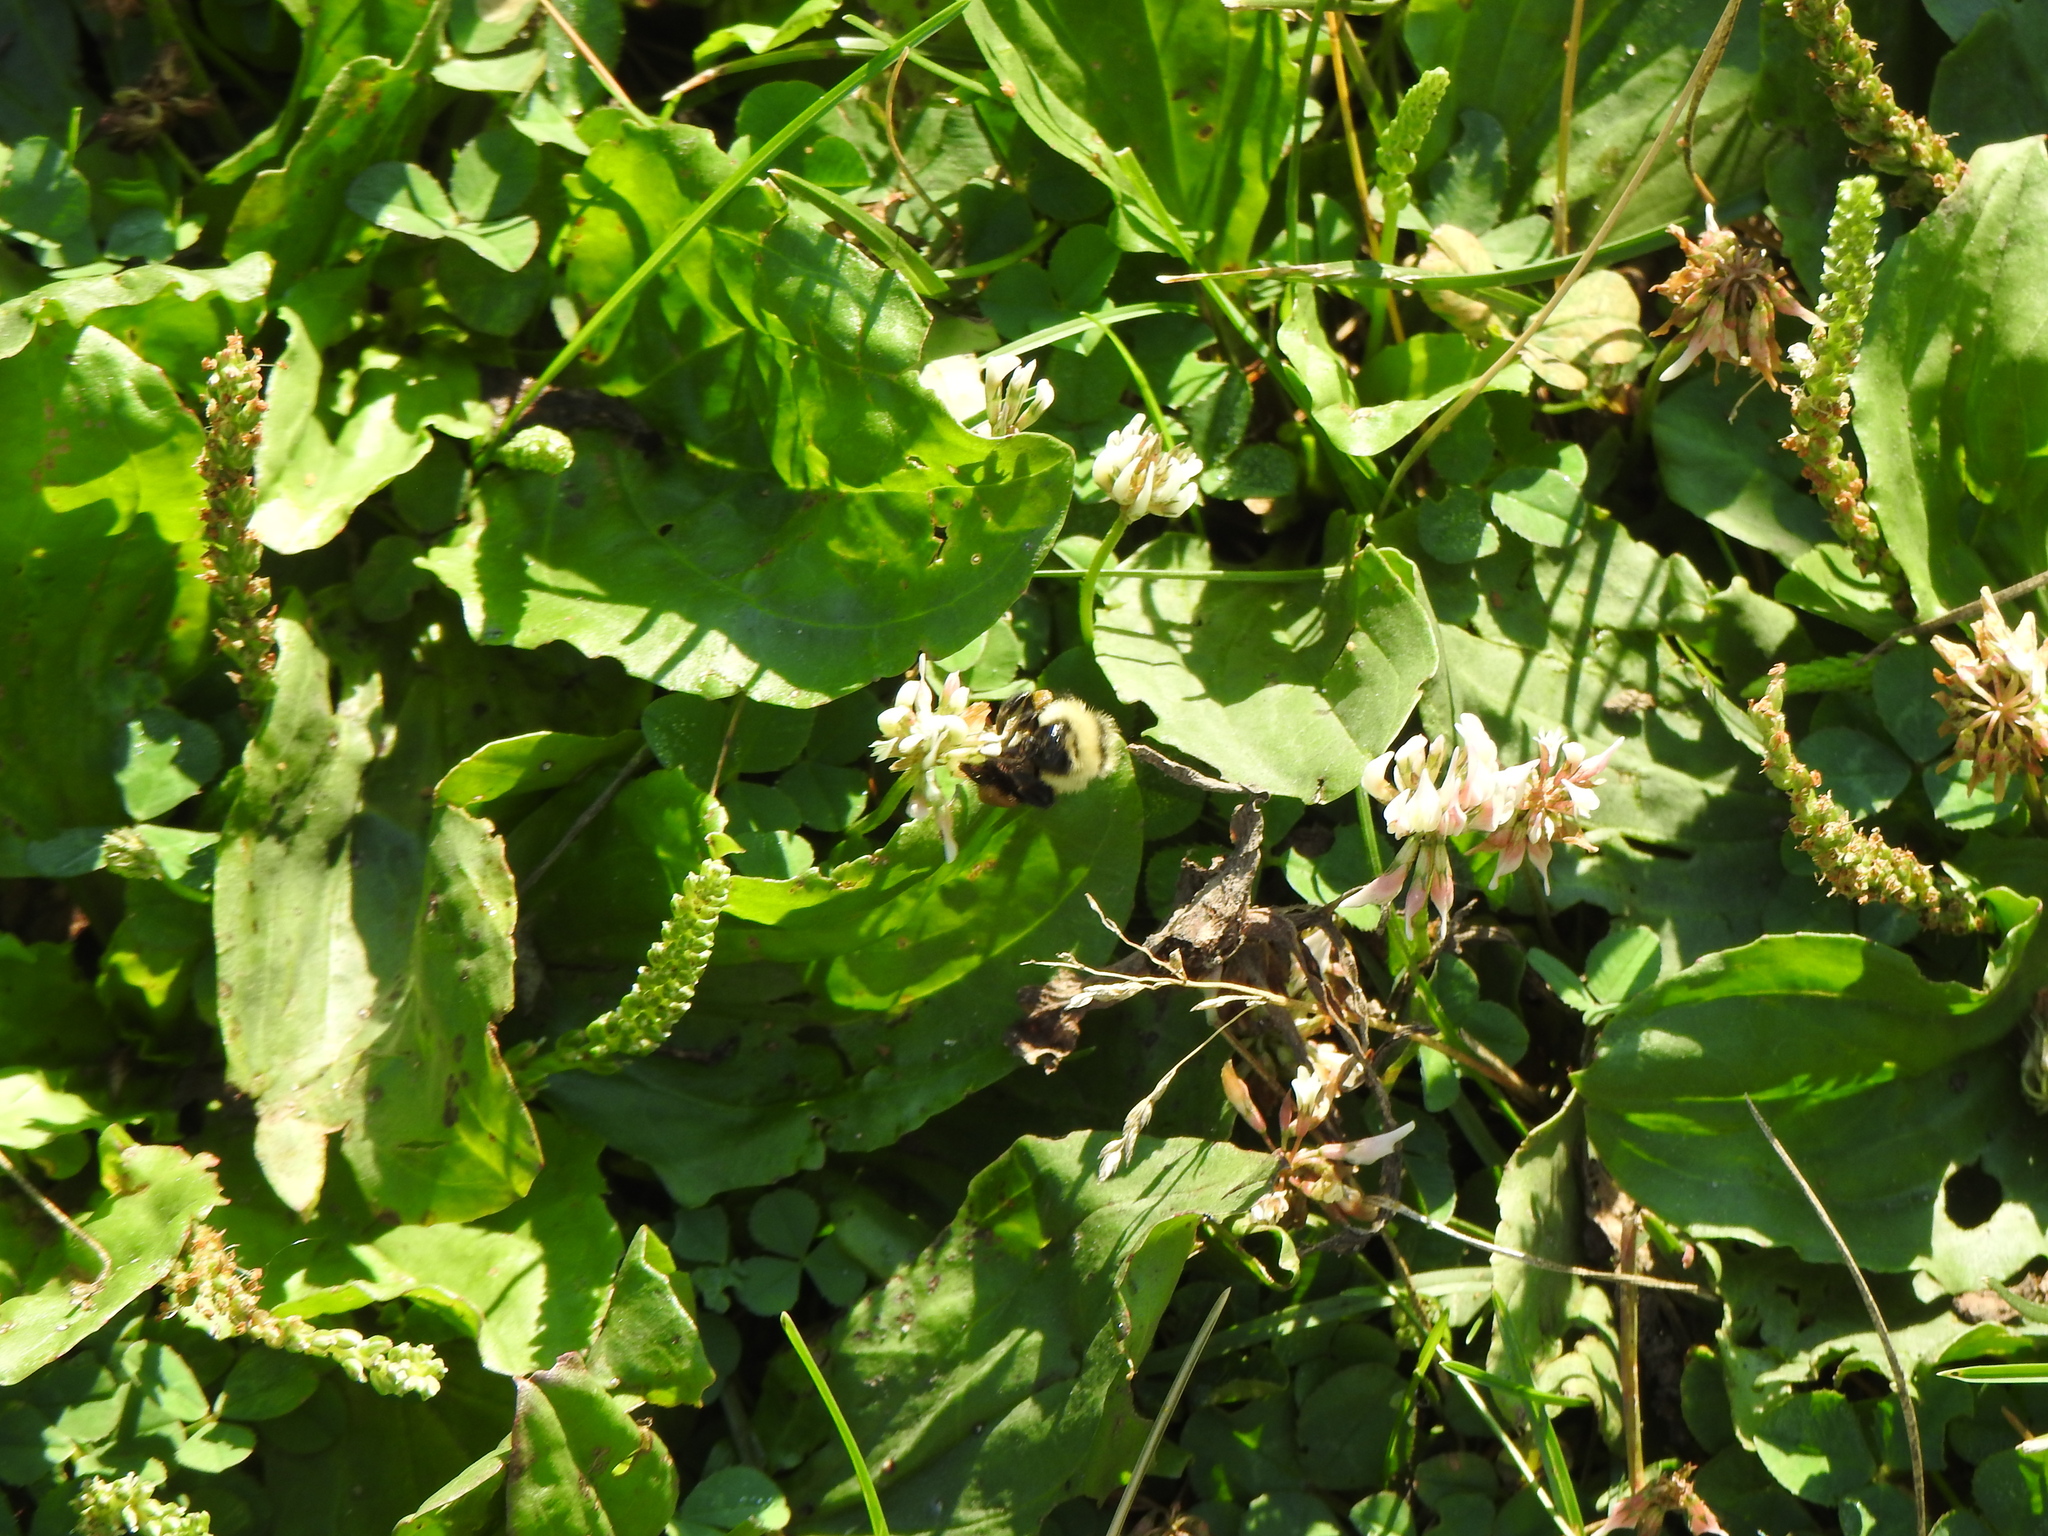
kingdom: Animalia
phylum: Arthropoda
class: Insecta
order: Hymenoptera
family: Apidae
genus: Bombus
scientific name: Bombus rufocinctus
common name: Red-belted bumble bee
